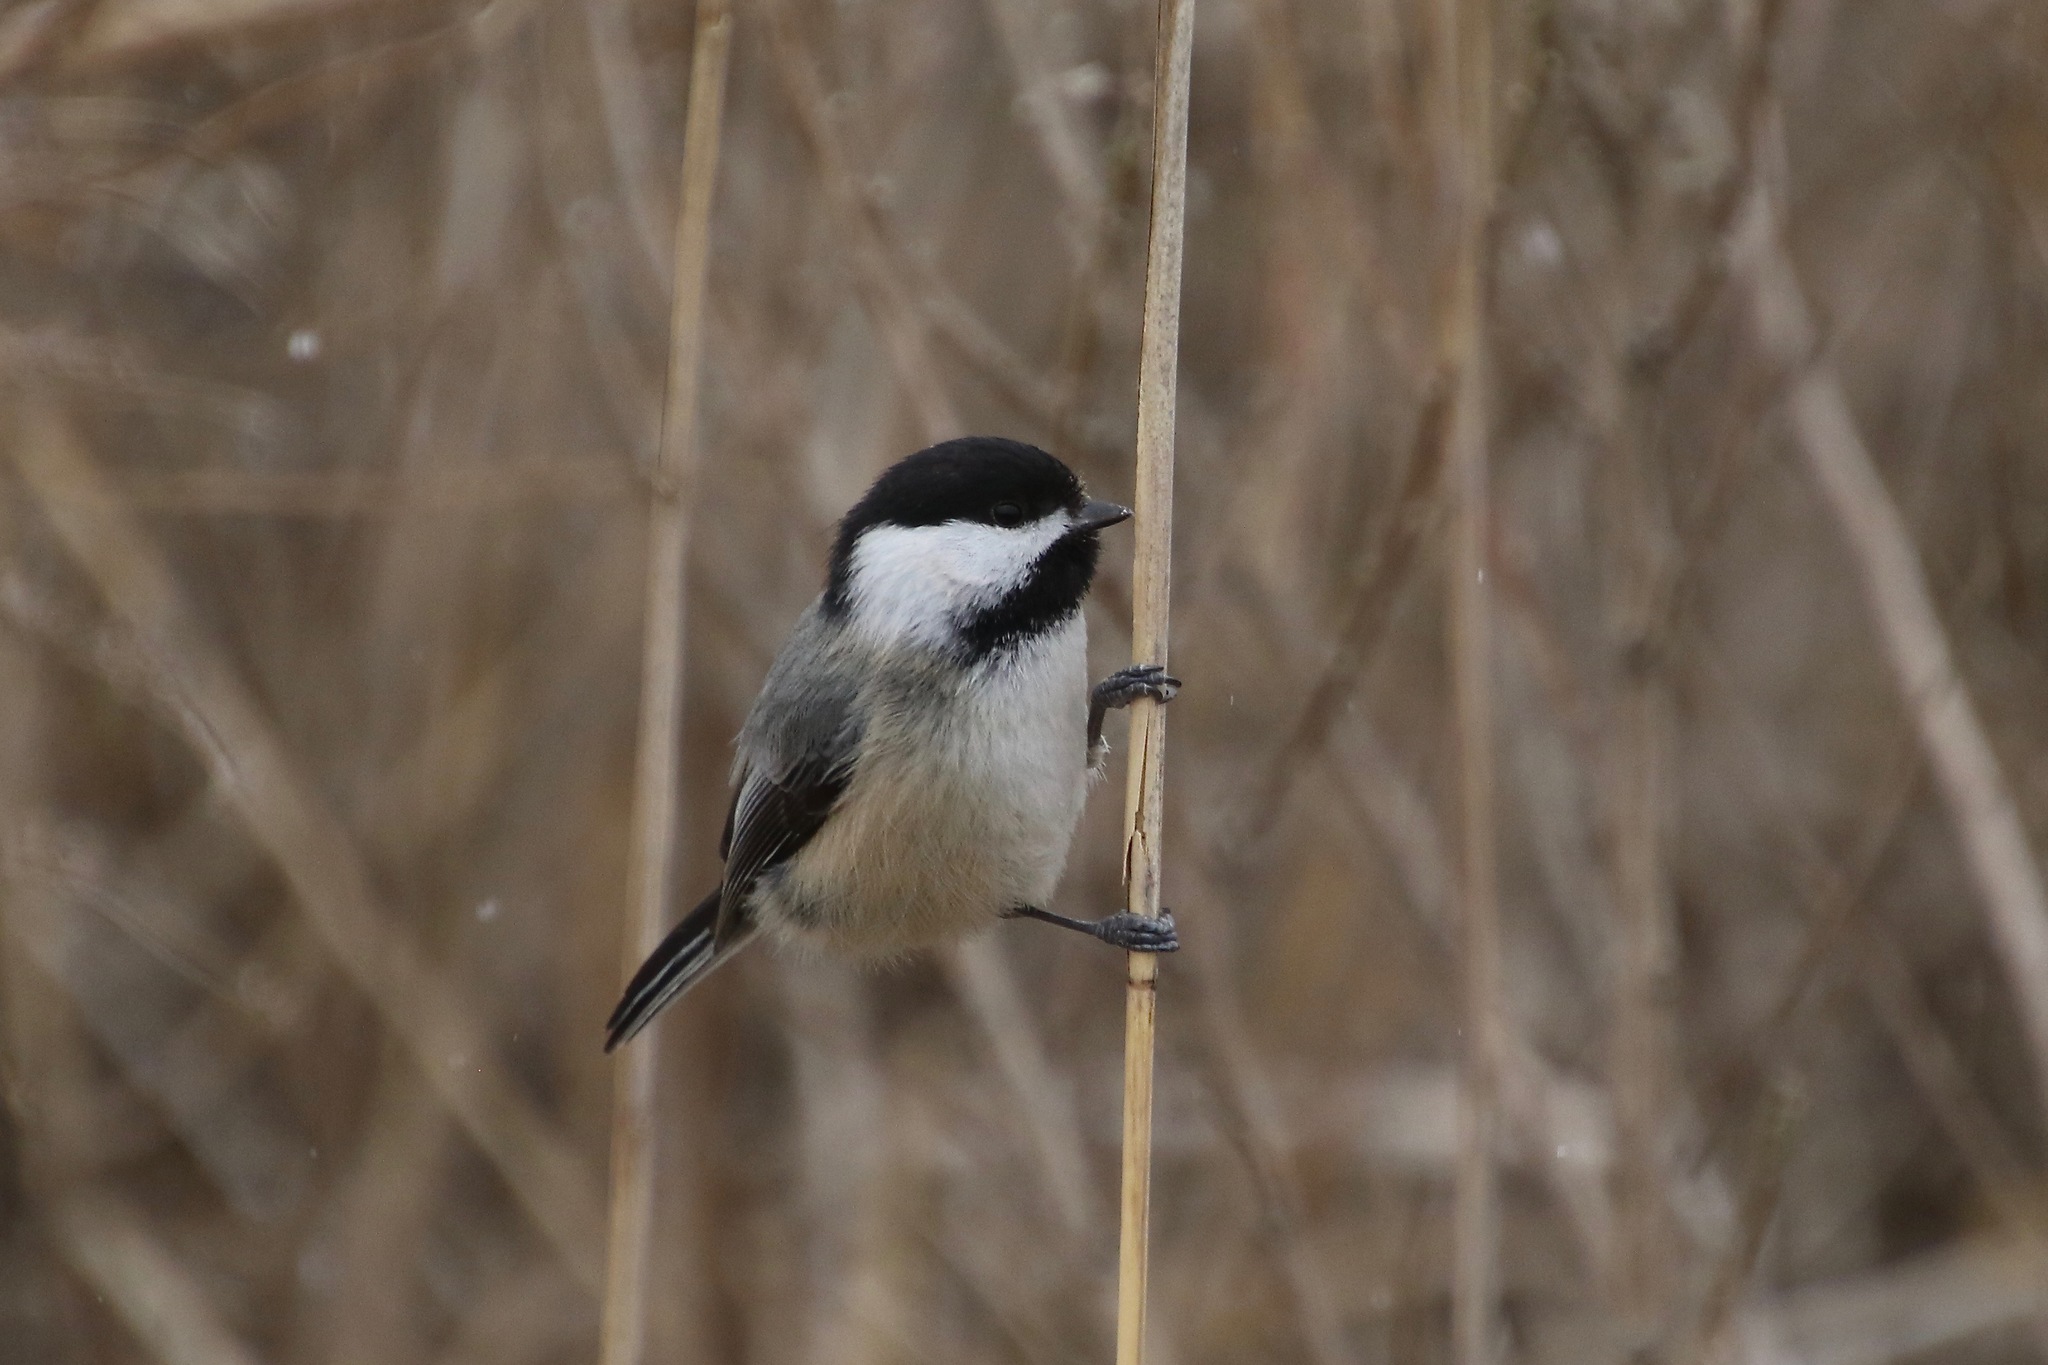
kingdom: Animalia
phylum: Chordata
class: Aves
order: Passeriformes
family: Paridae
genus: Poecile
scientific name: Poecile atricapillus
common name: Black-capped chickadee
